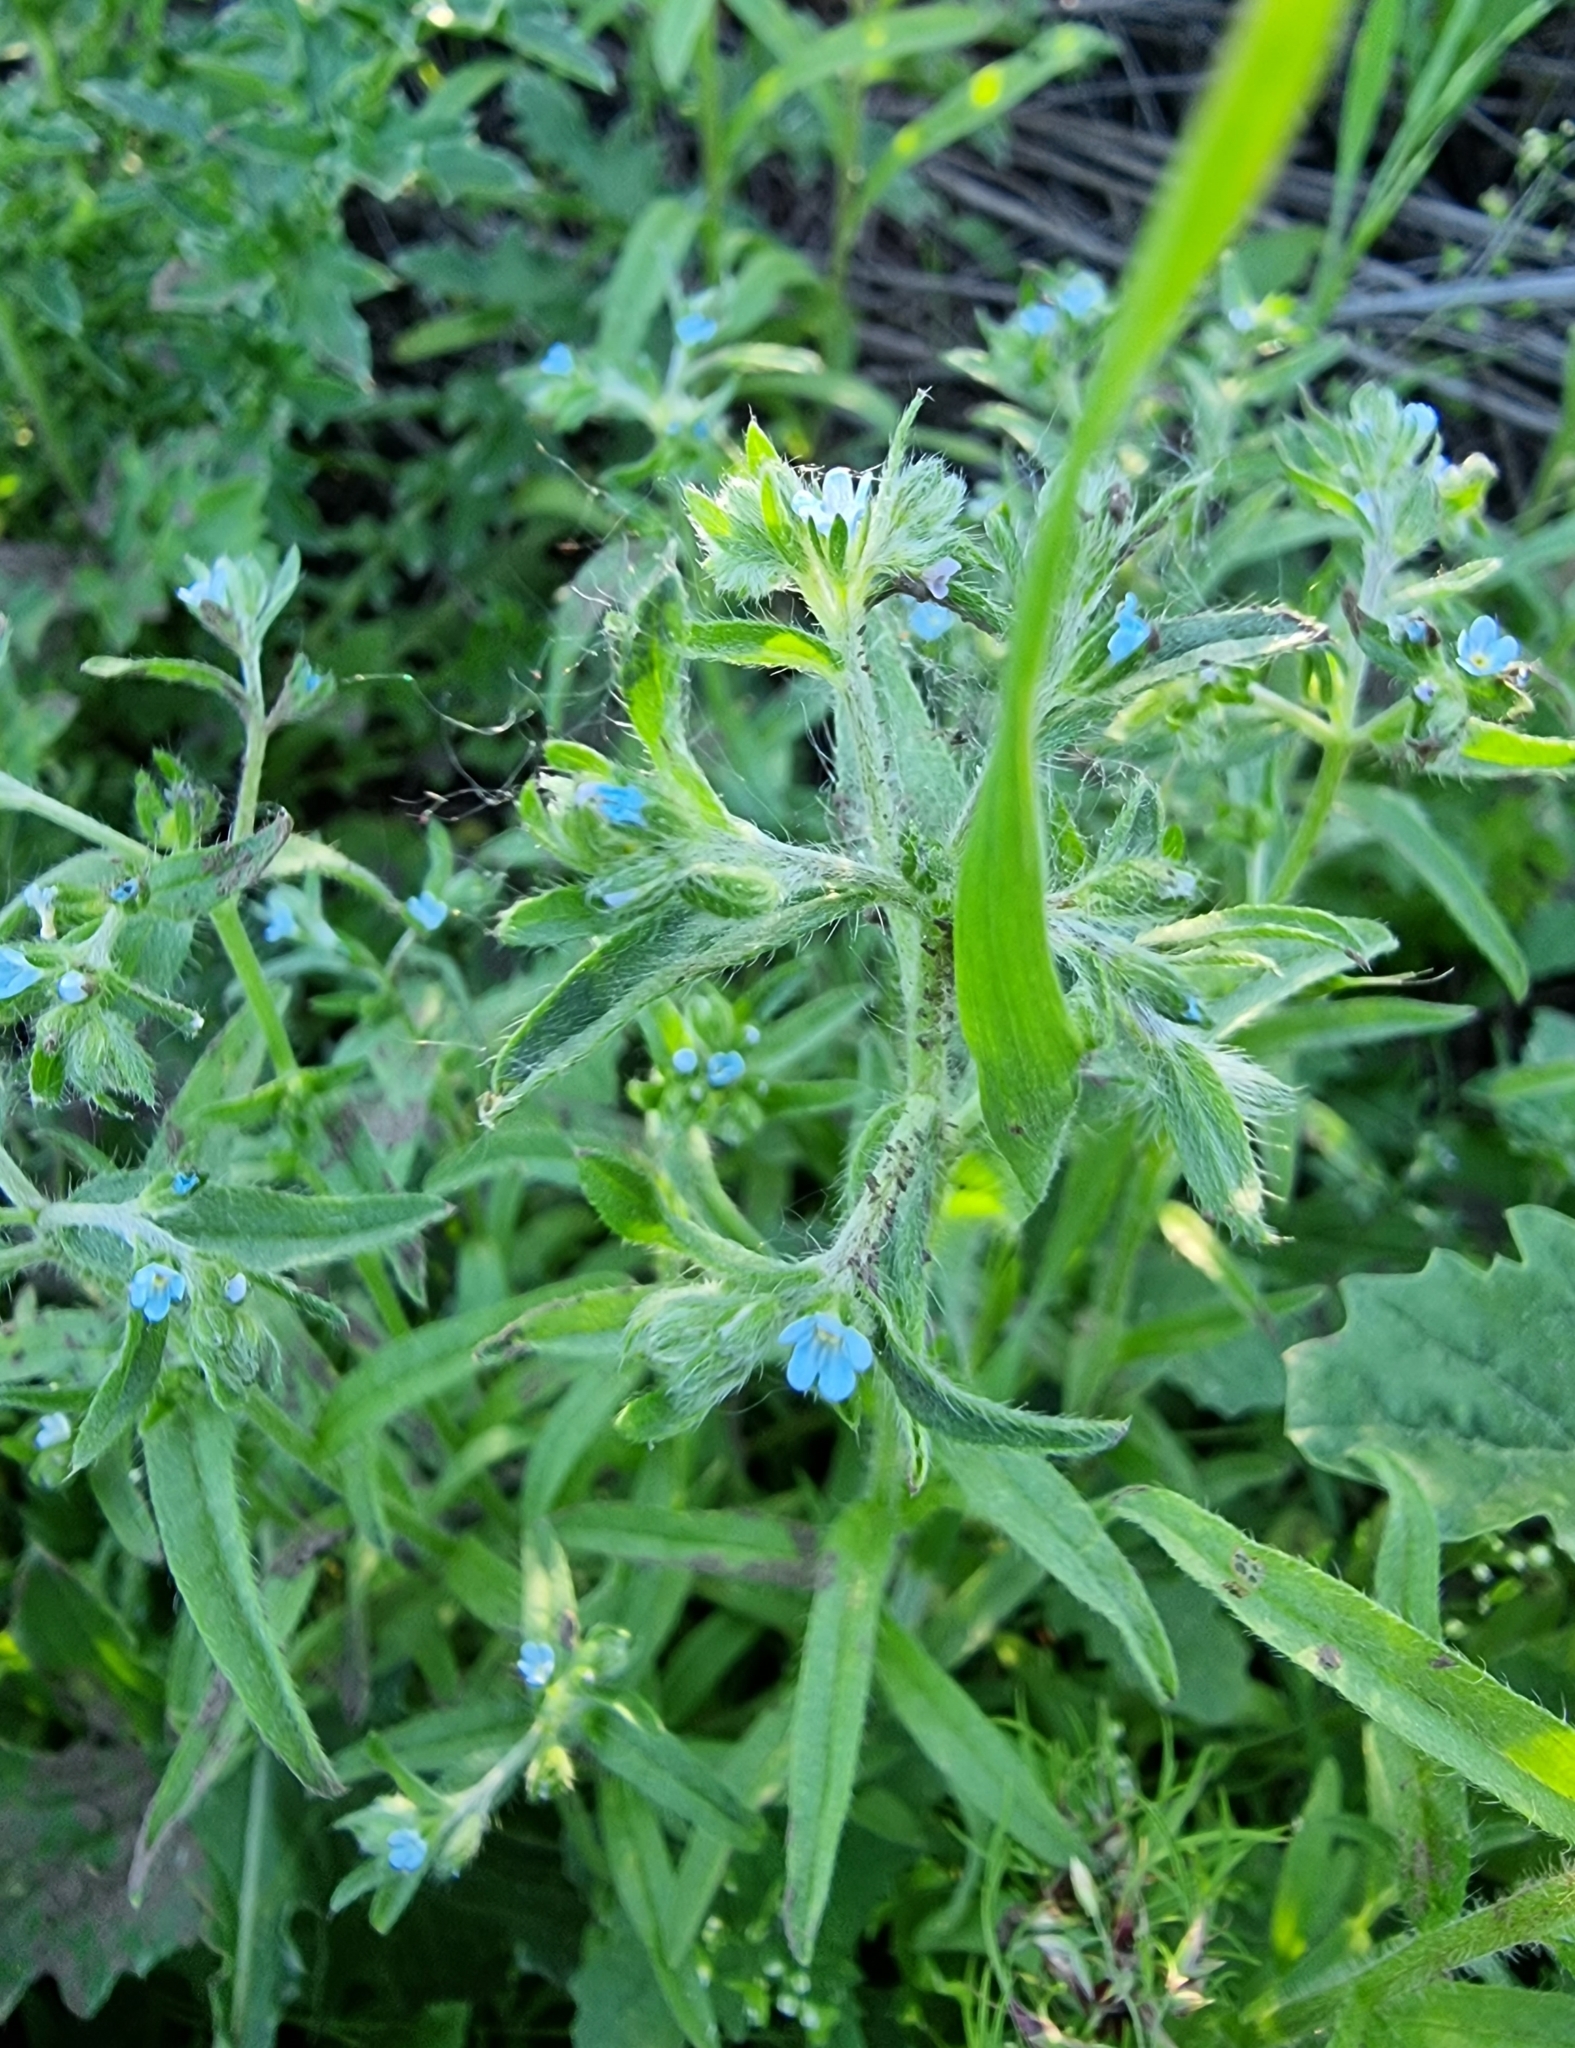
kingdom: Plantae
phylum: Tracheophyta
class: Magnoliopsida
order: Boraginales
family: Boraginaceae
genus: Lappula
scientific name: Lappula squarrosa
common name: European stickseed
